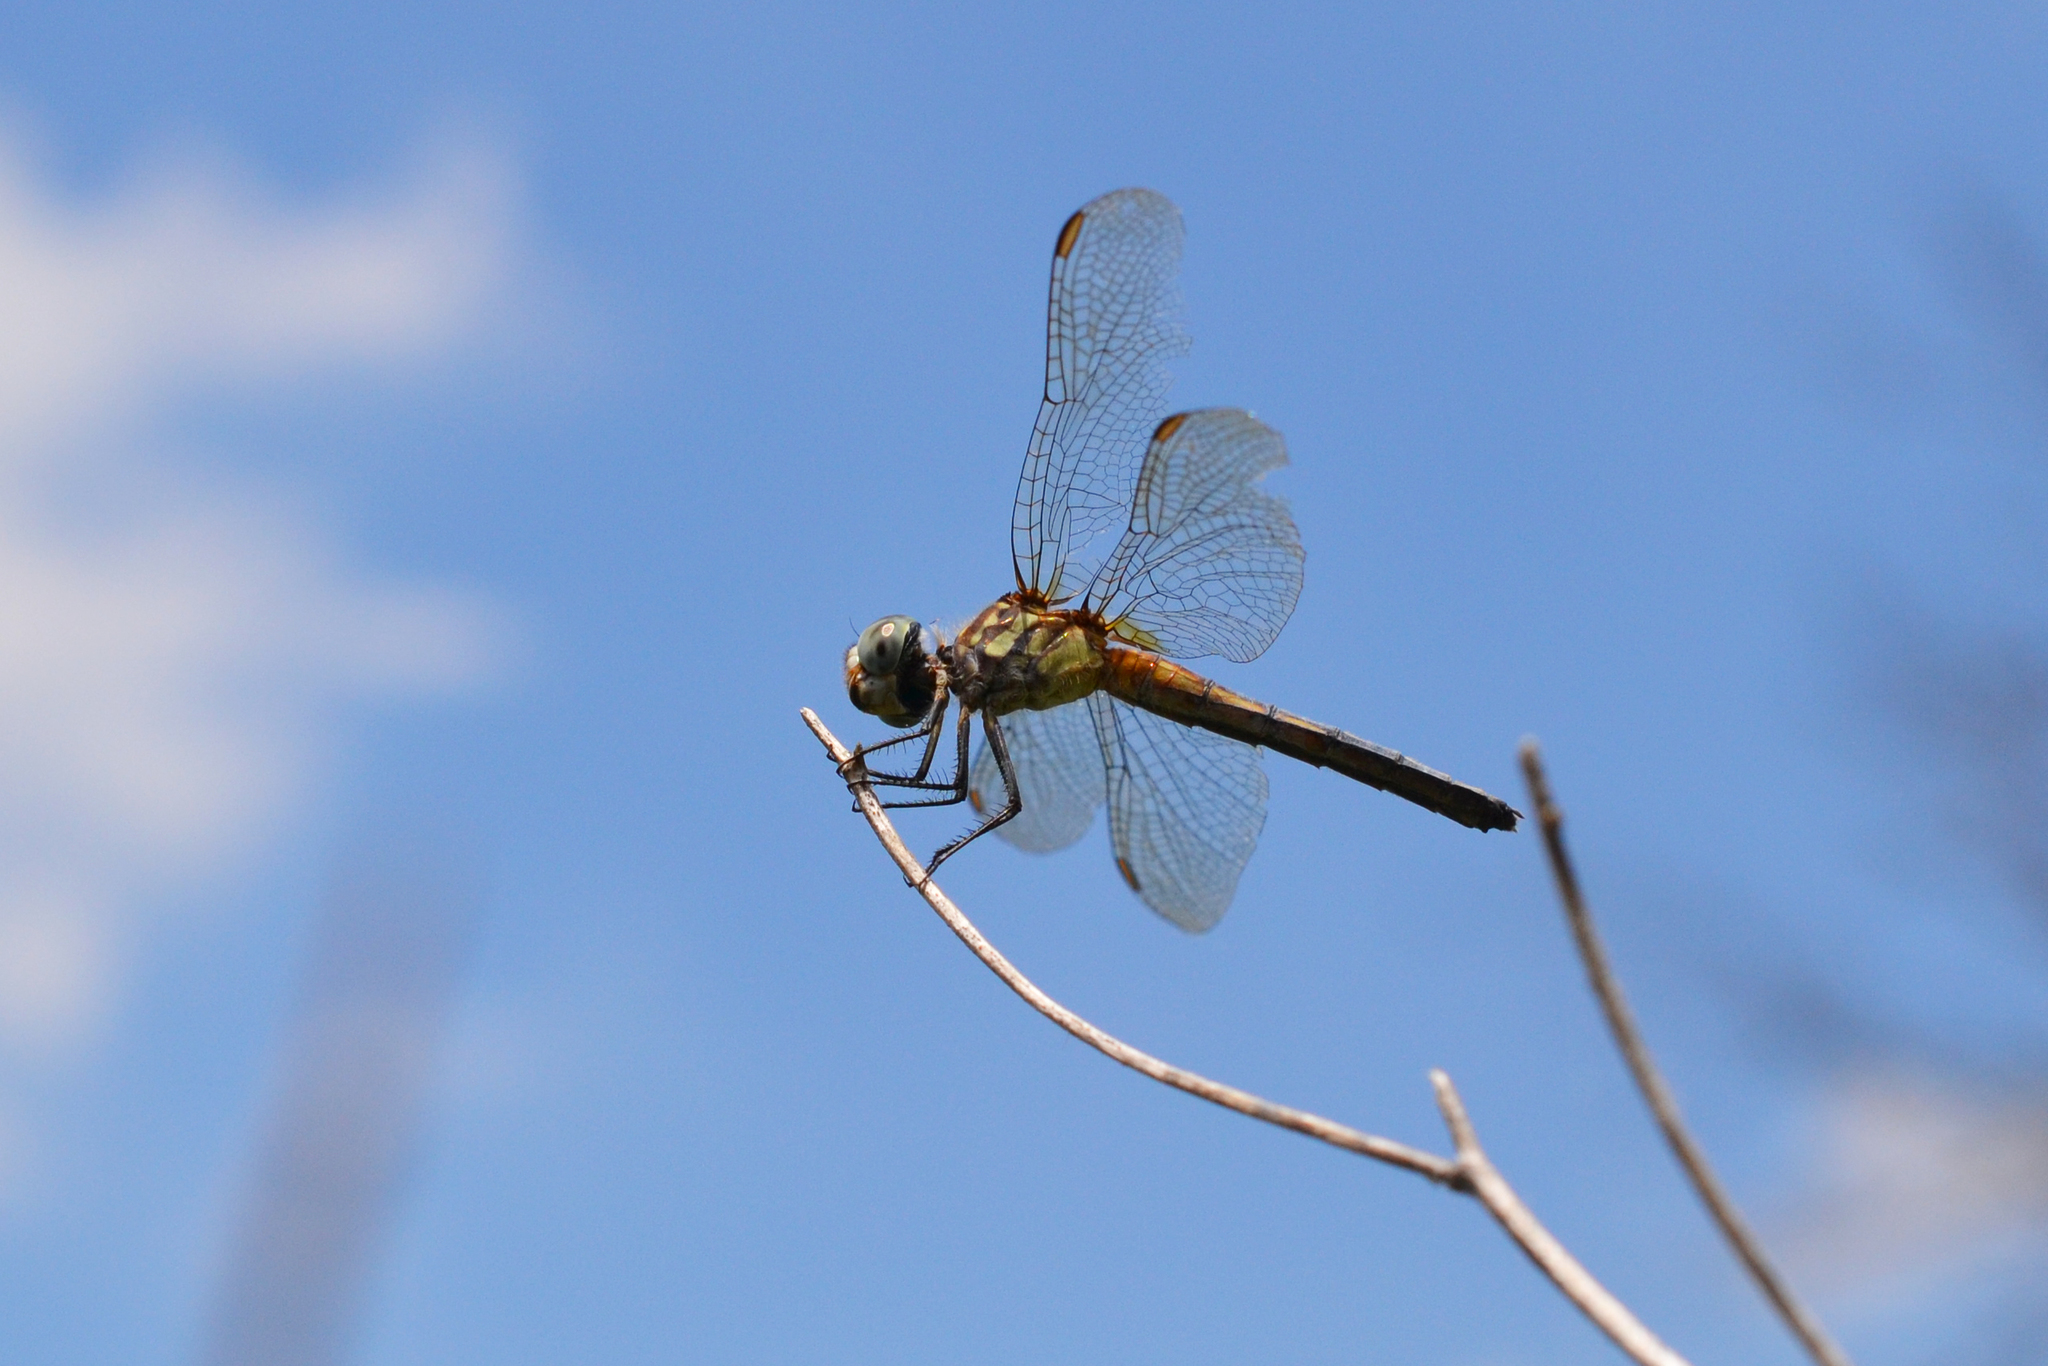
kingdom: Animalia
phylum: Arthropoda
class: Insecta
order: Odonata
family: Libellulidae
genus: Pachydiplax
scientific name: Pachydiplax longipennis
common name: Blue dasher
